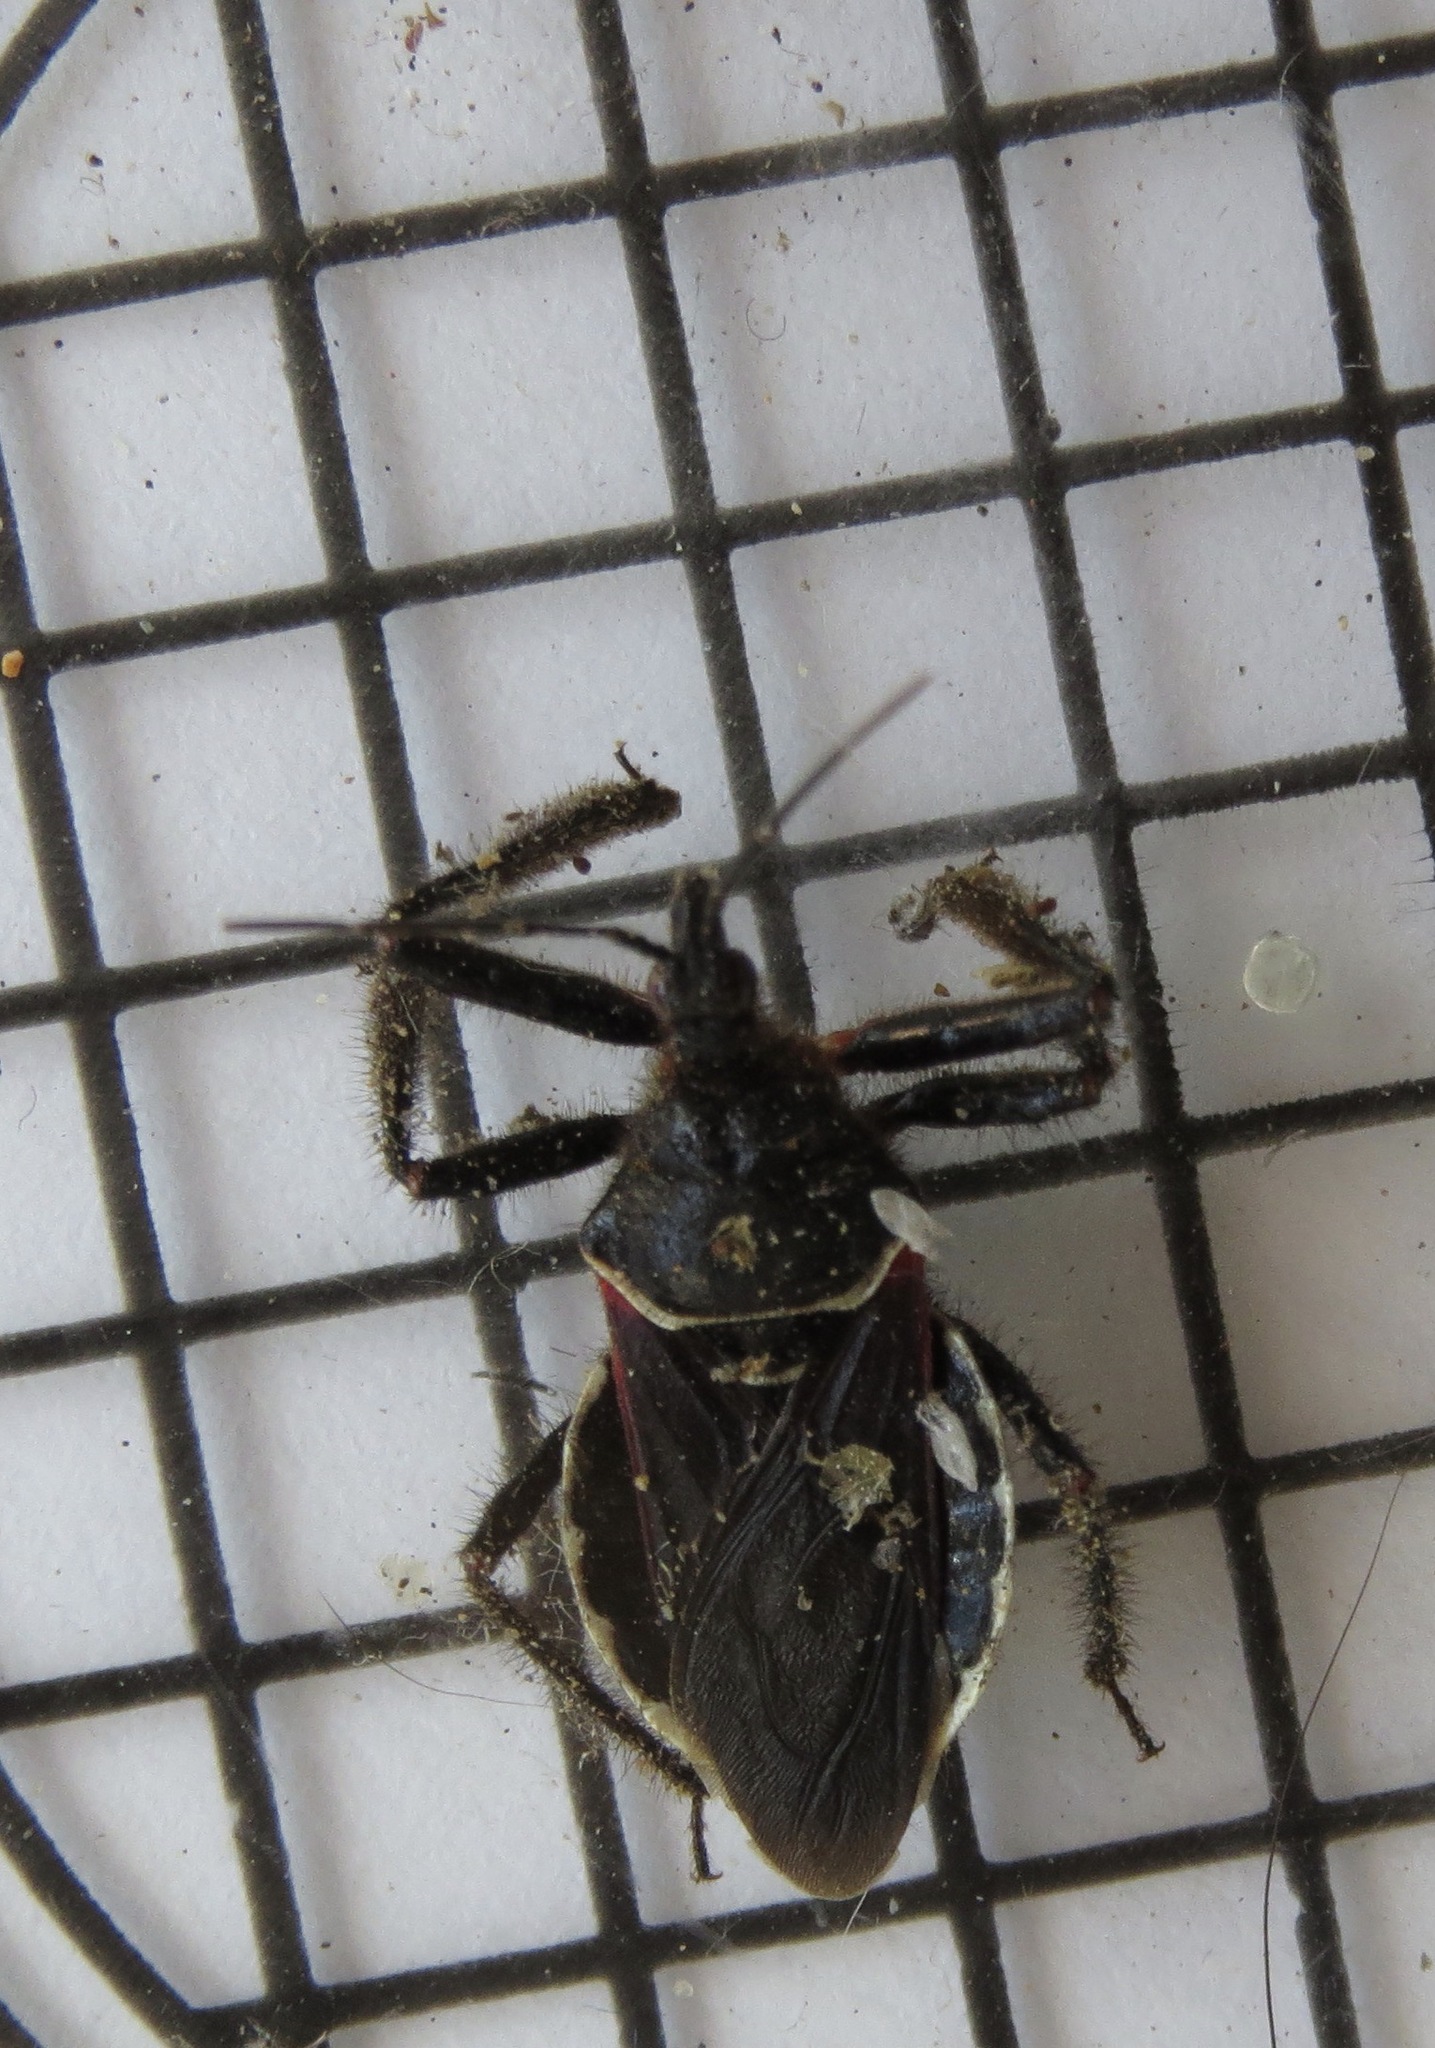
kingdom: Animalia
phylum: Arthropoda
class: Insecta
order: Hemiptera
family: Reduviidae
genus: Apiomerus
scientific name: Apiomerus californicus
